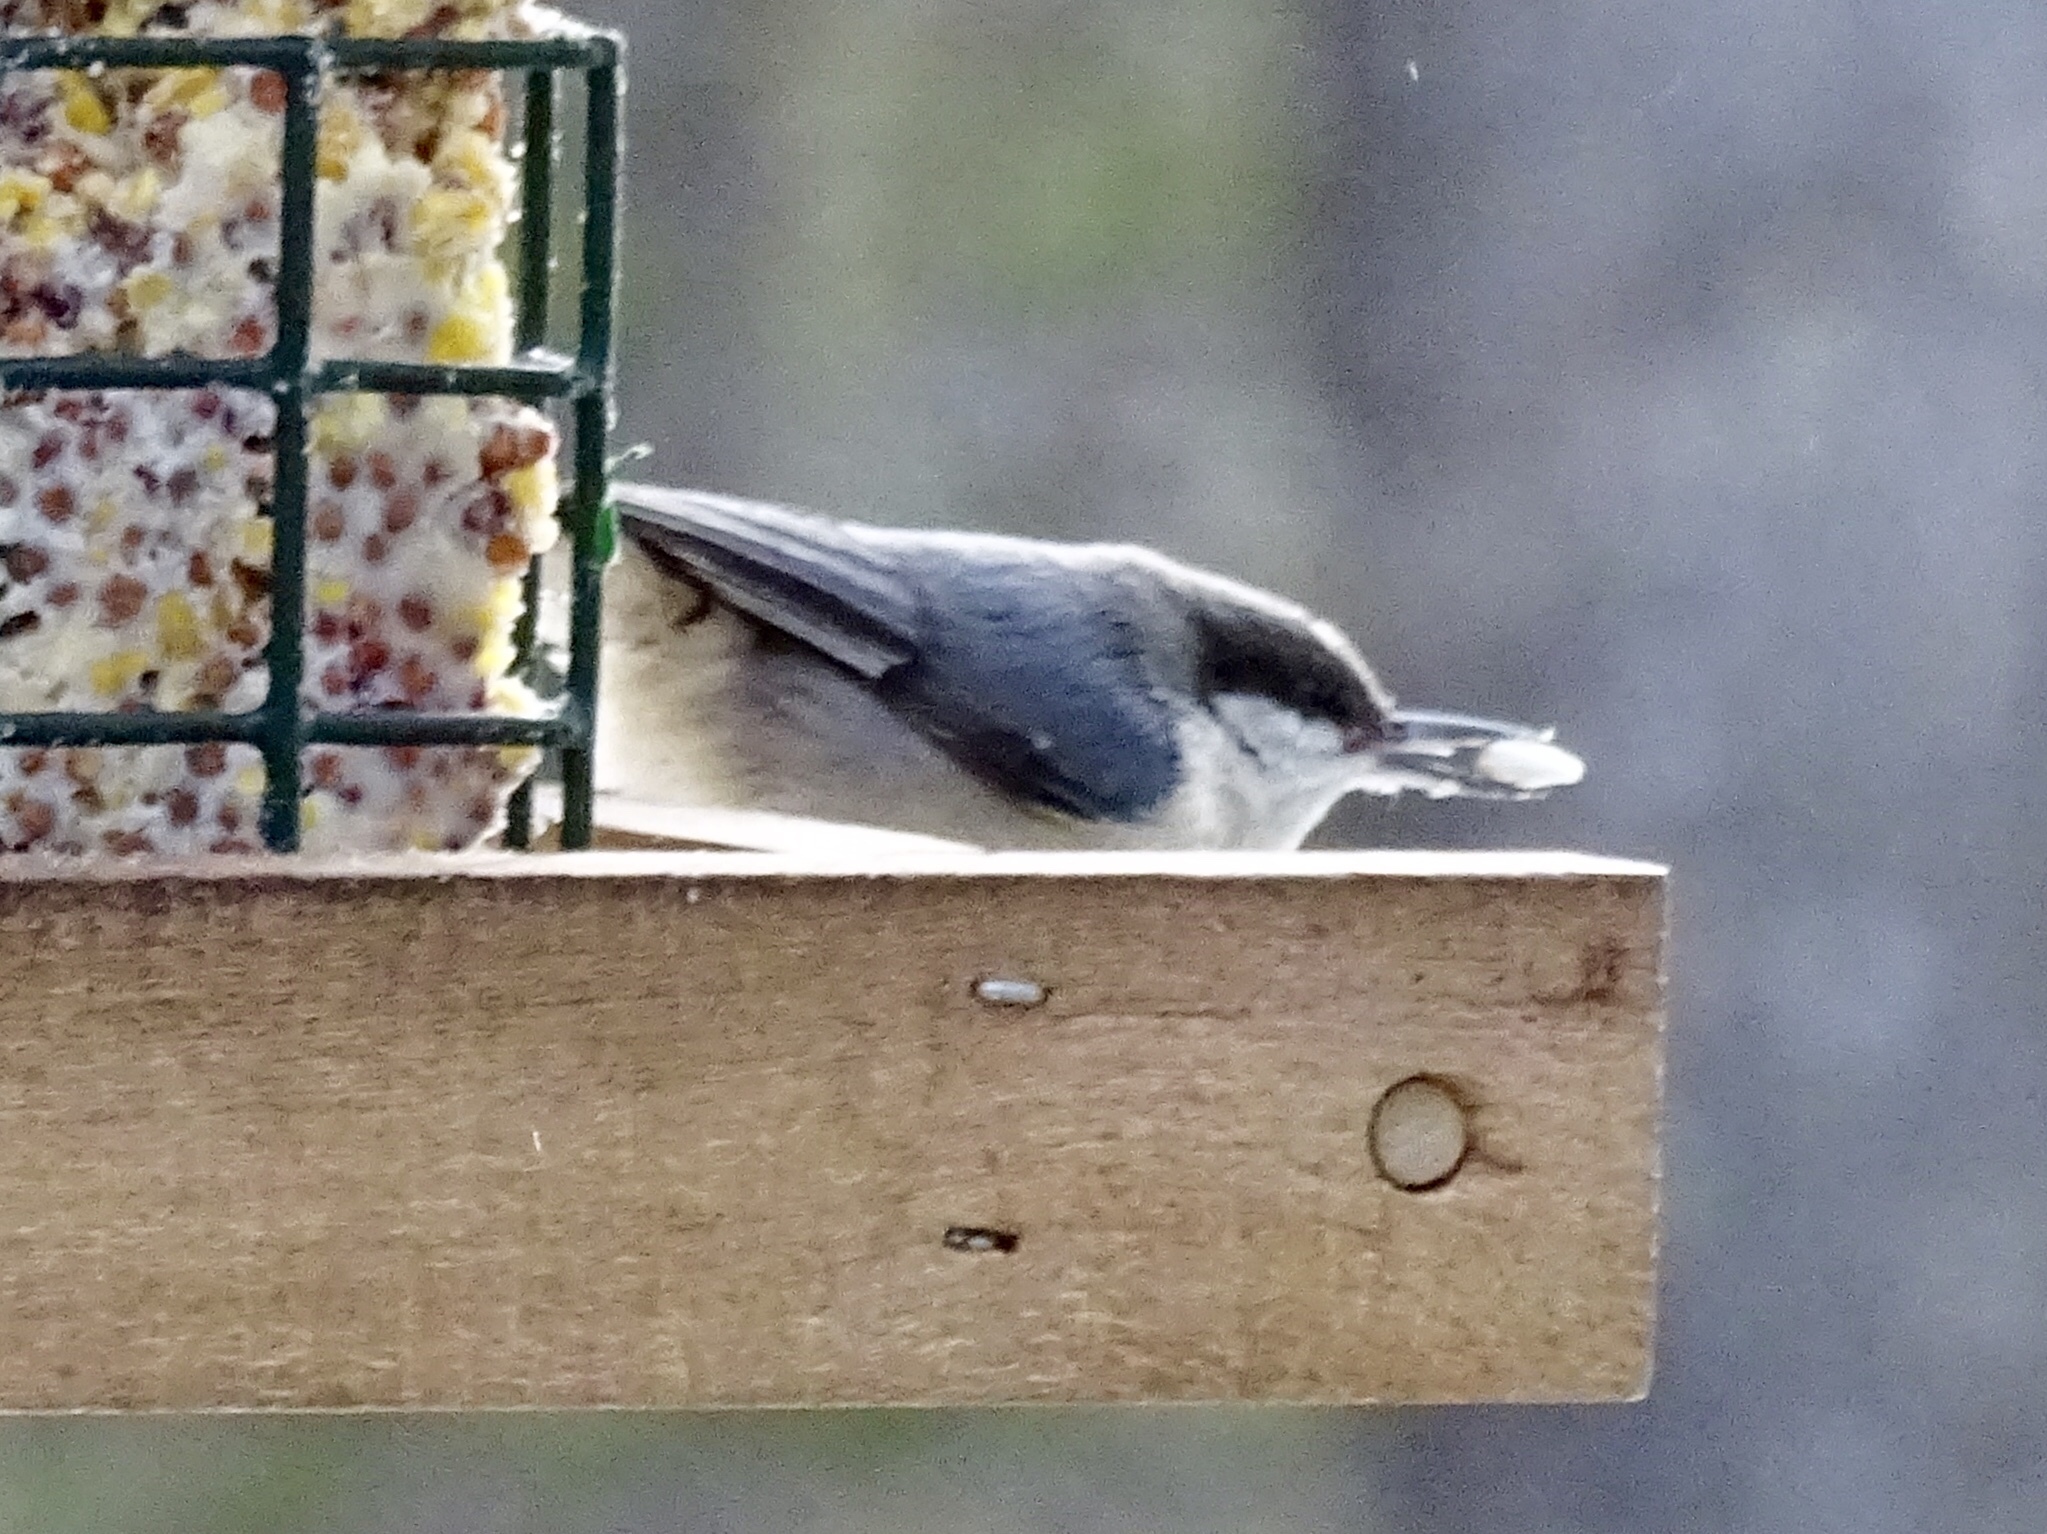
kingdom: Animalia
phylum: Chordata
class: Aves
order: Passeriformes
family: Sittidae
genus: Sitta
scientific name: Sitta pygmaea
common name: Pygmy nuthatch
